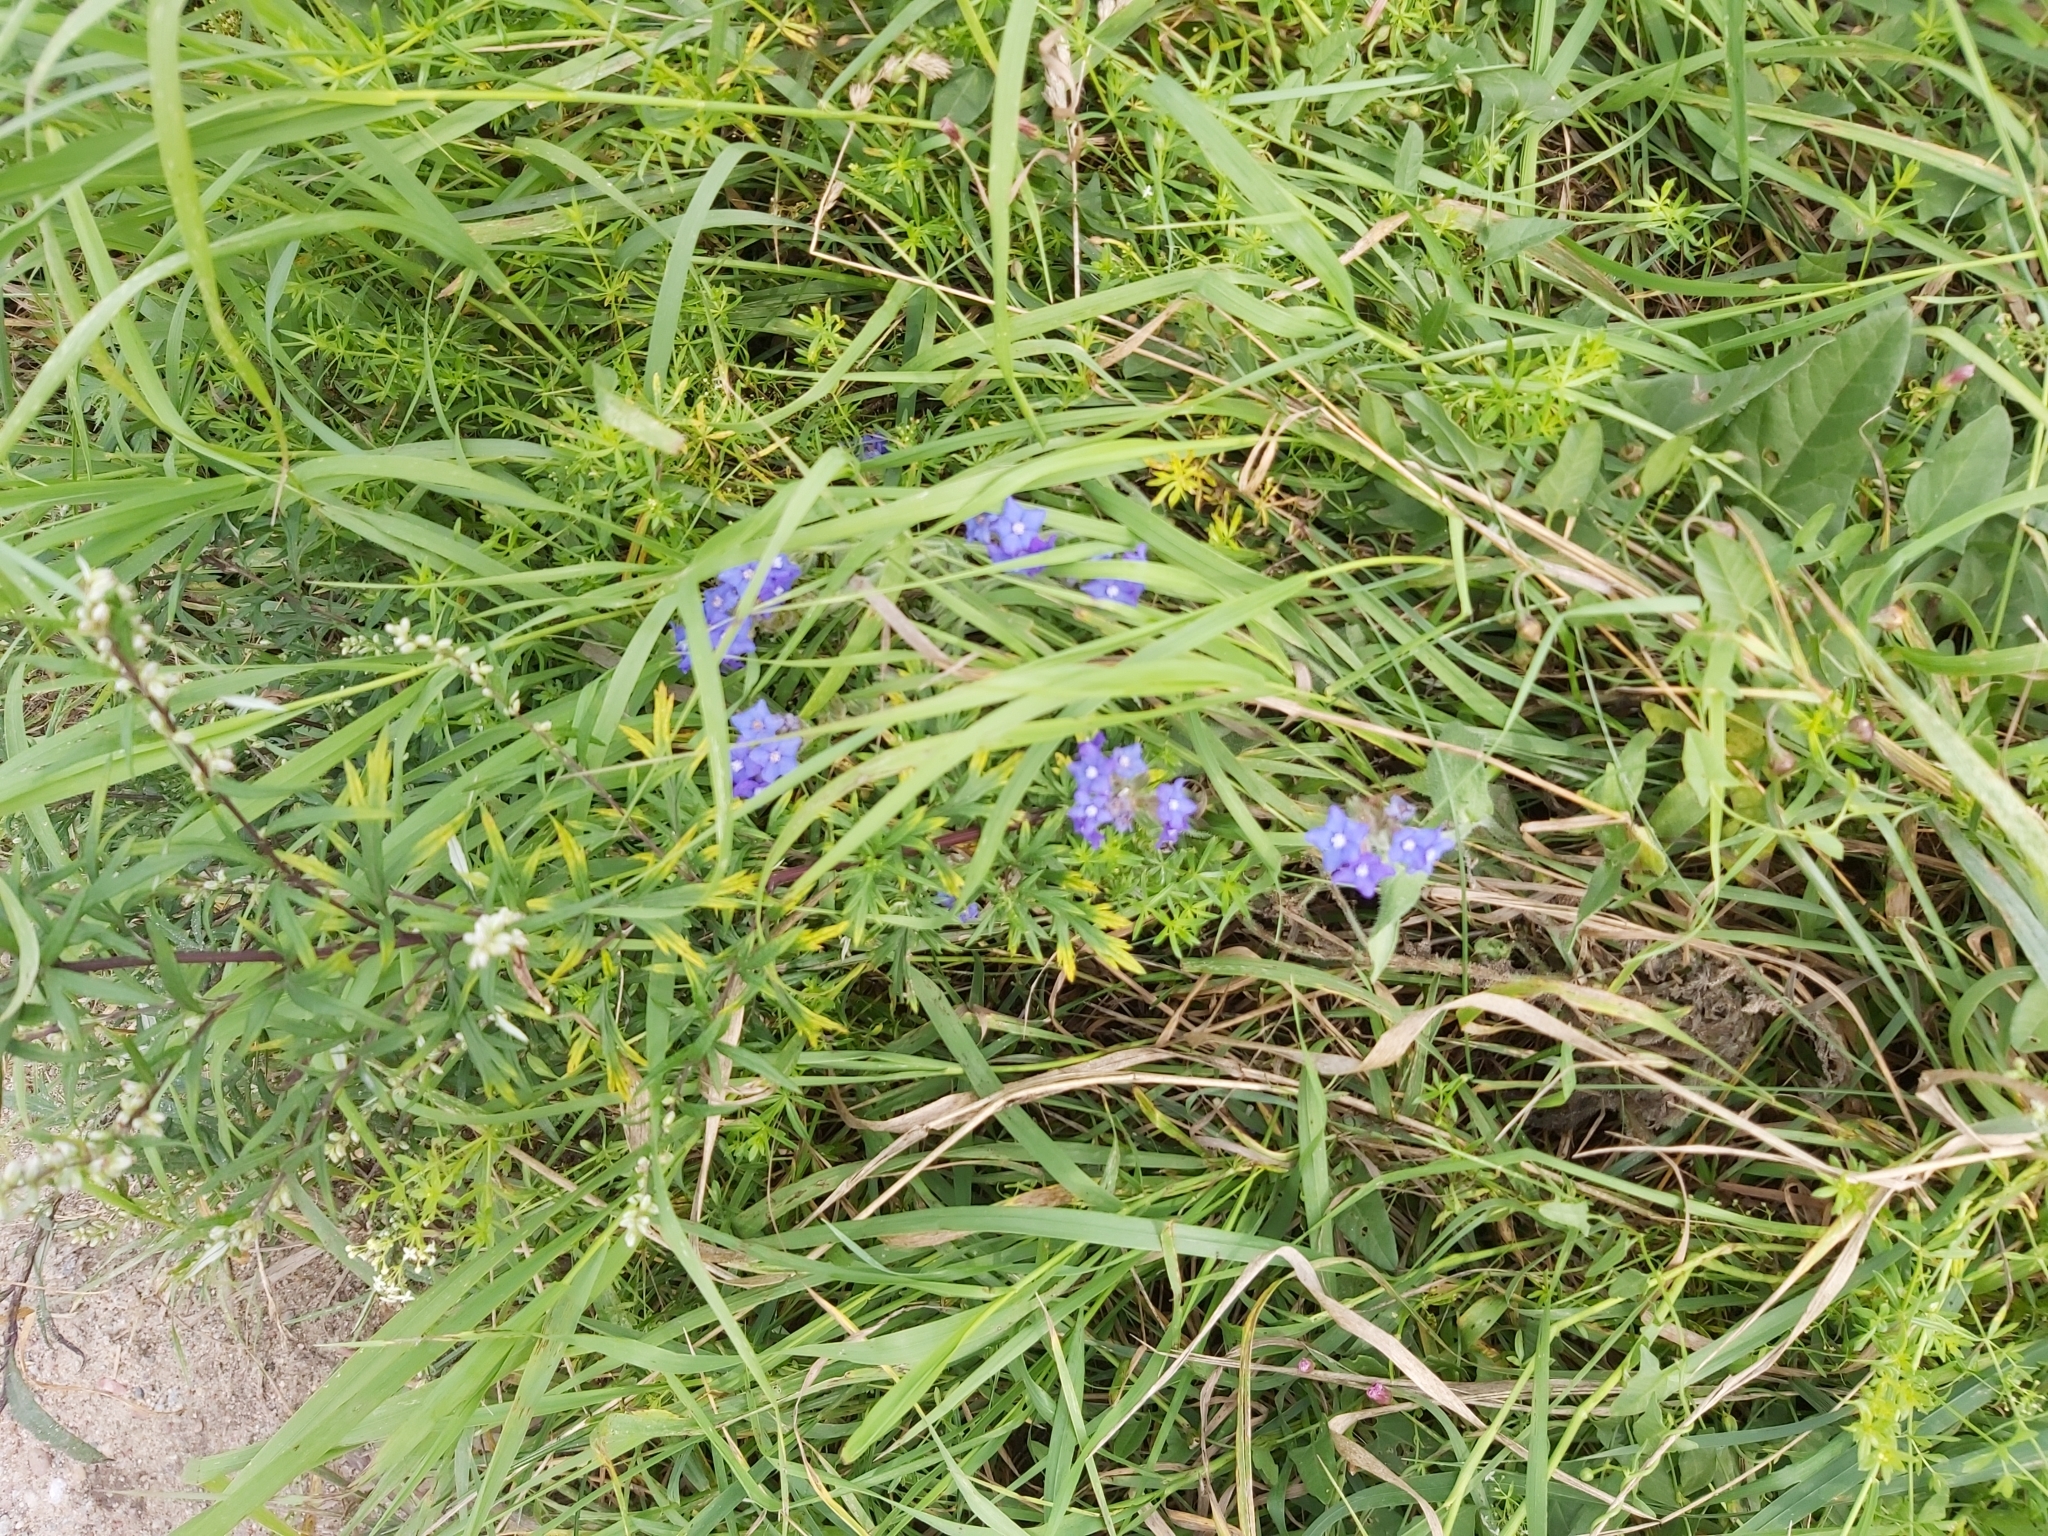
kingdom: Plantae
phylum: Tracheophyta
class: Magnoliopsida
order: Boraginales
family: Boraginaceae
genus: Anchusa
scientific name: Anchusa officinalis
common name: Alkanet
